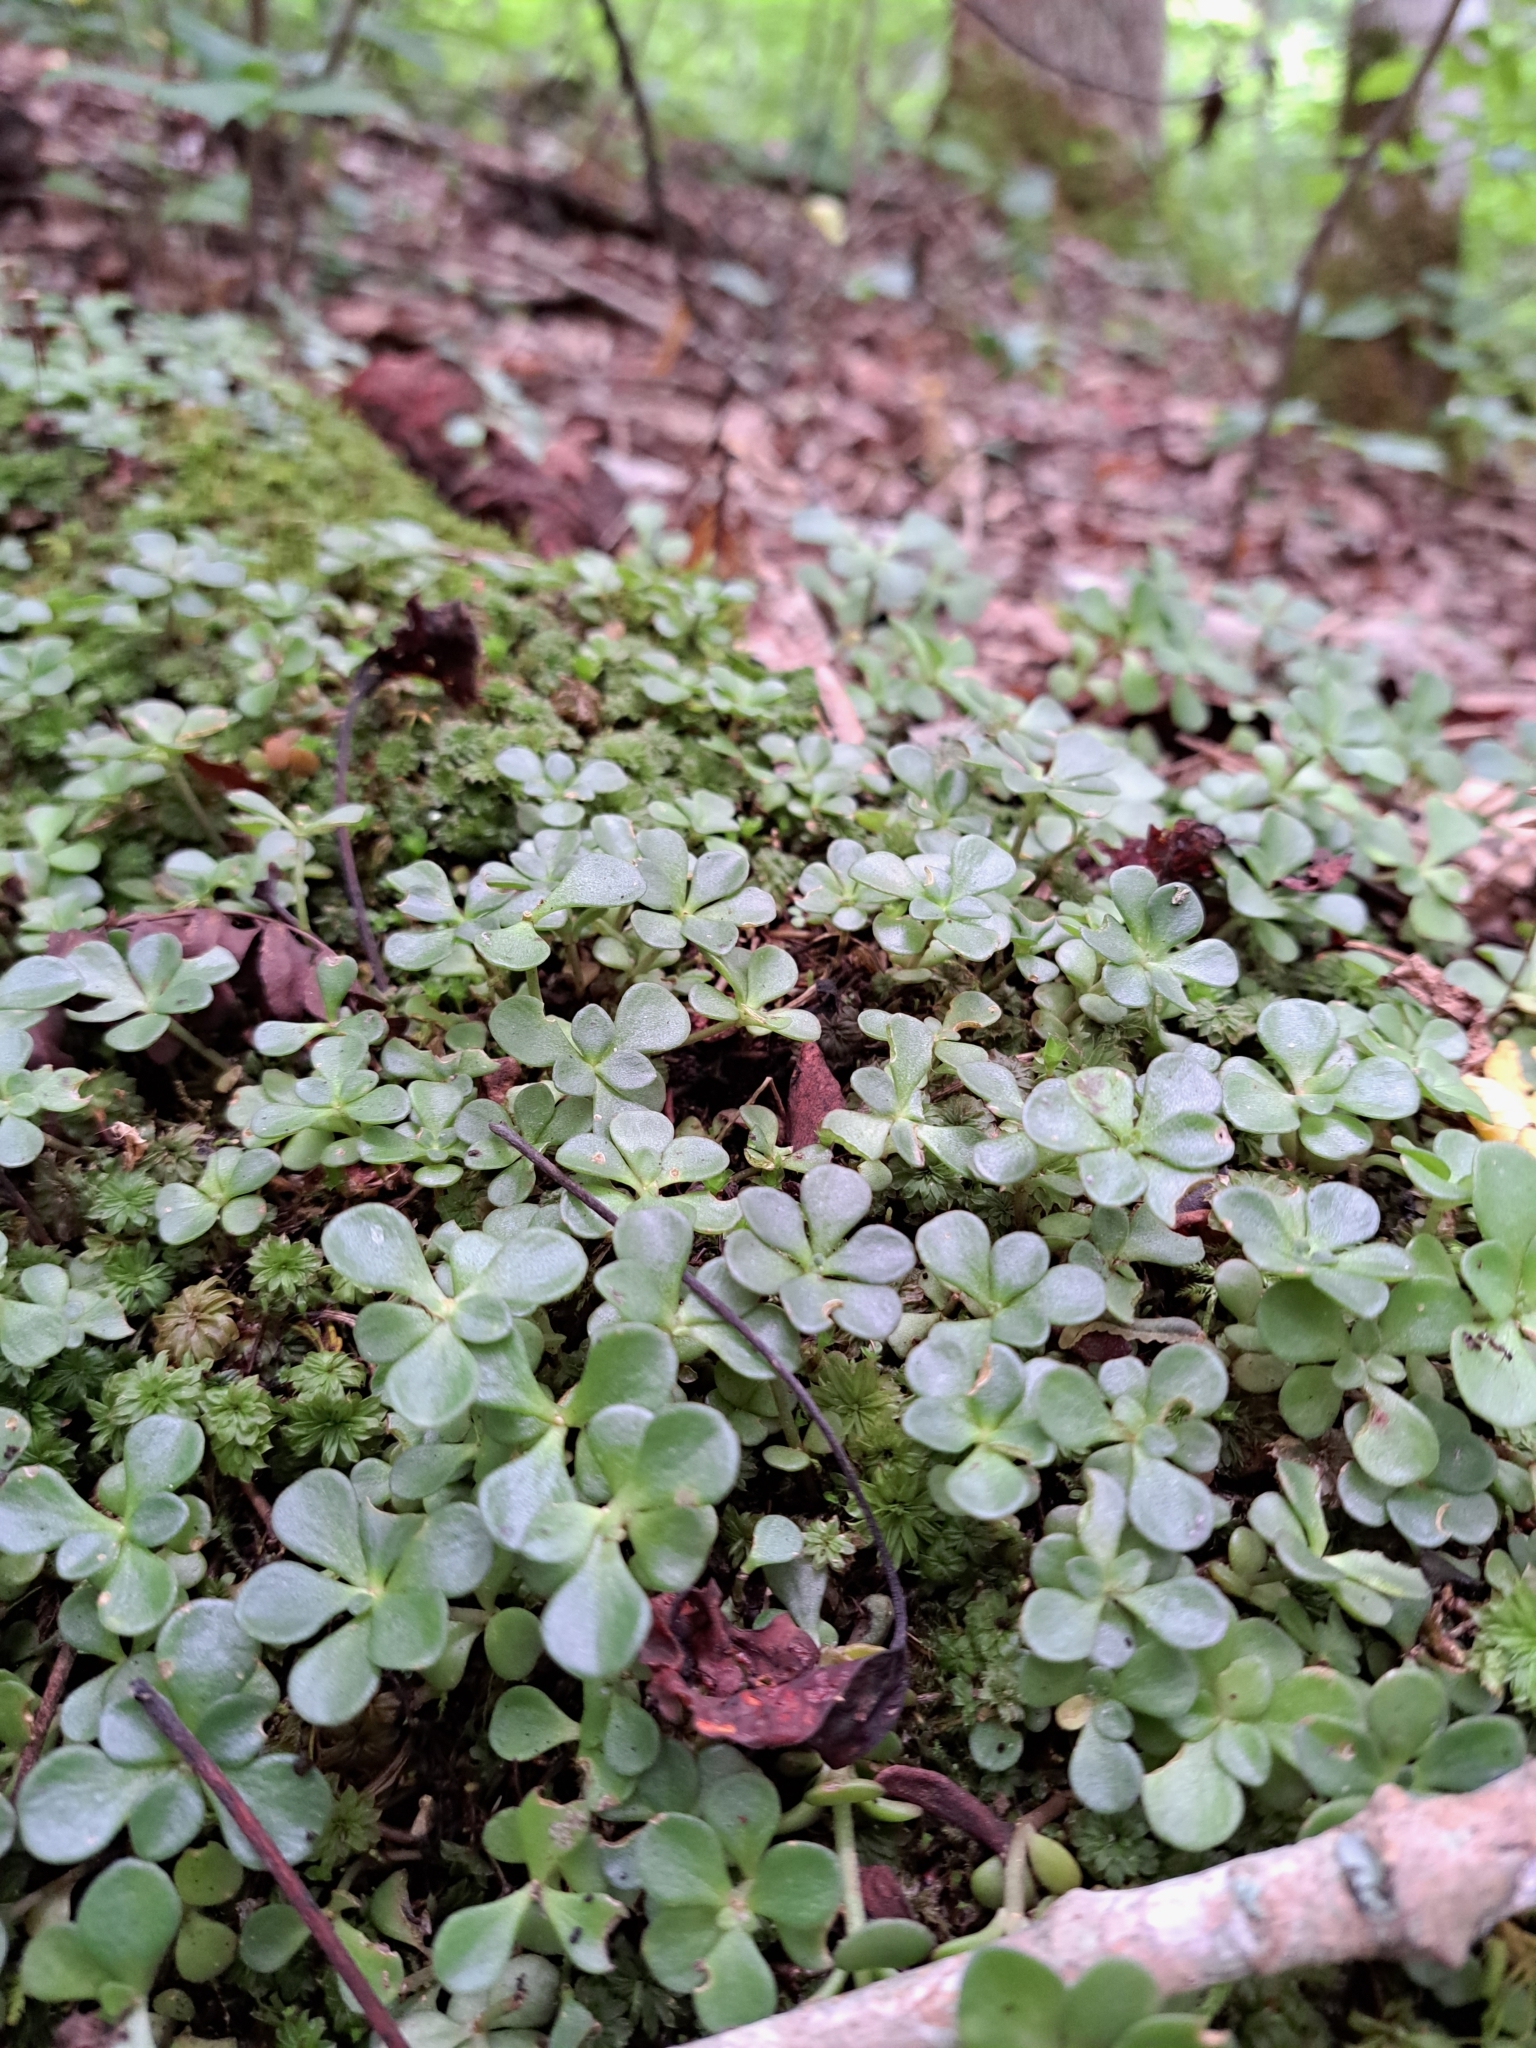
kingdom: Plantae
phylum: Tracheophyta
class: Magnoliopsida
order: Saxifragales
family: Crassulaceae
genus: Sedum
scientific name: Sedum ternatum
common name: Wild stonecrop
